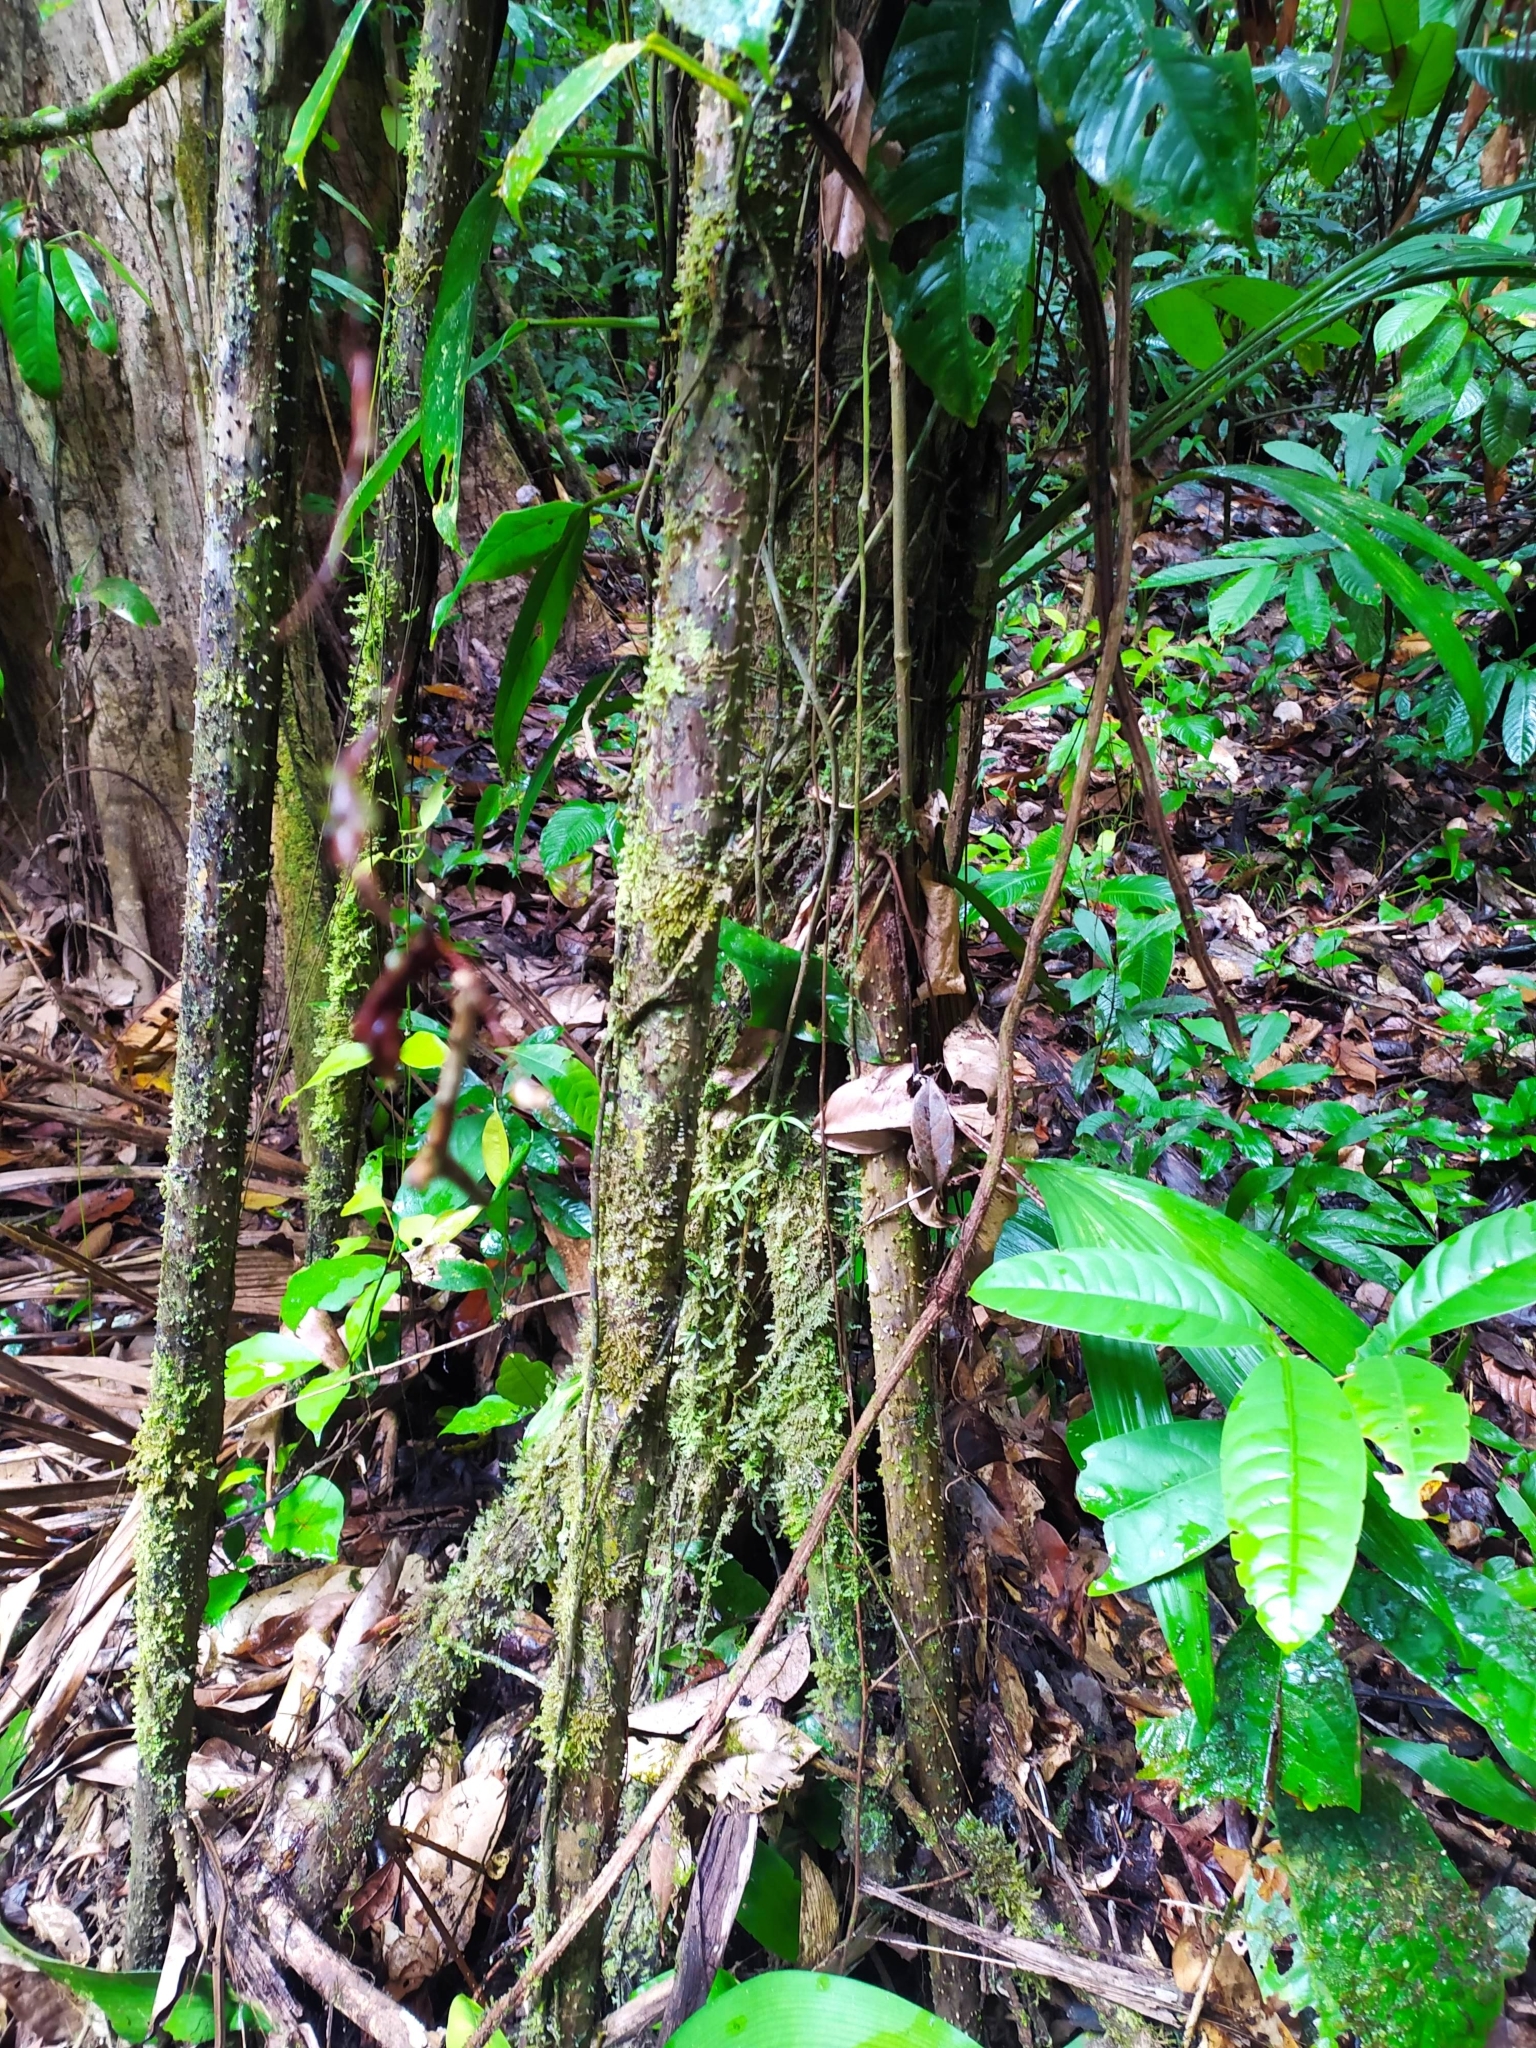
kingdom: Plantae
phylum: Tracheophyta
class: Liliopsida
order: Arecales
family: Arecaceae
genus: Socratea
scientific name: Socratea exorrhiza
